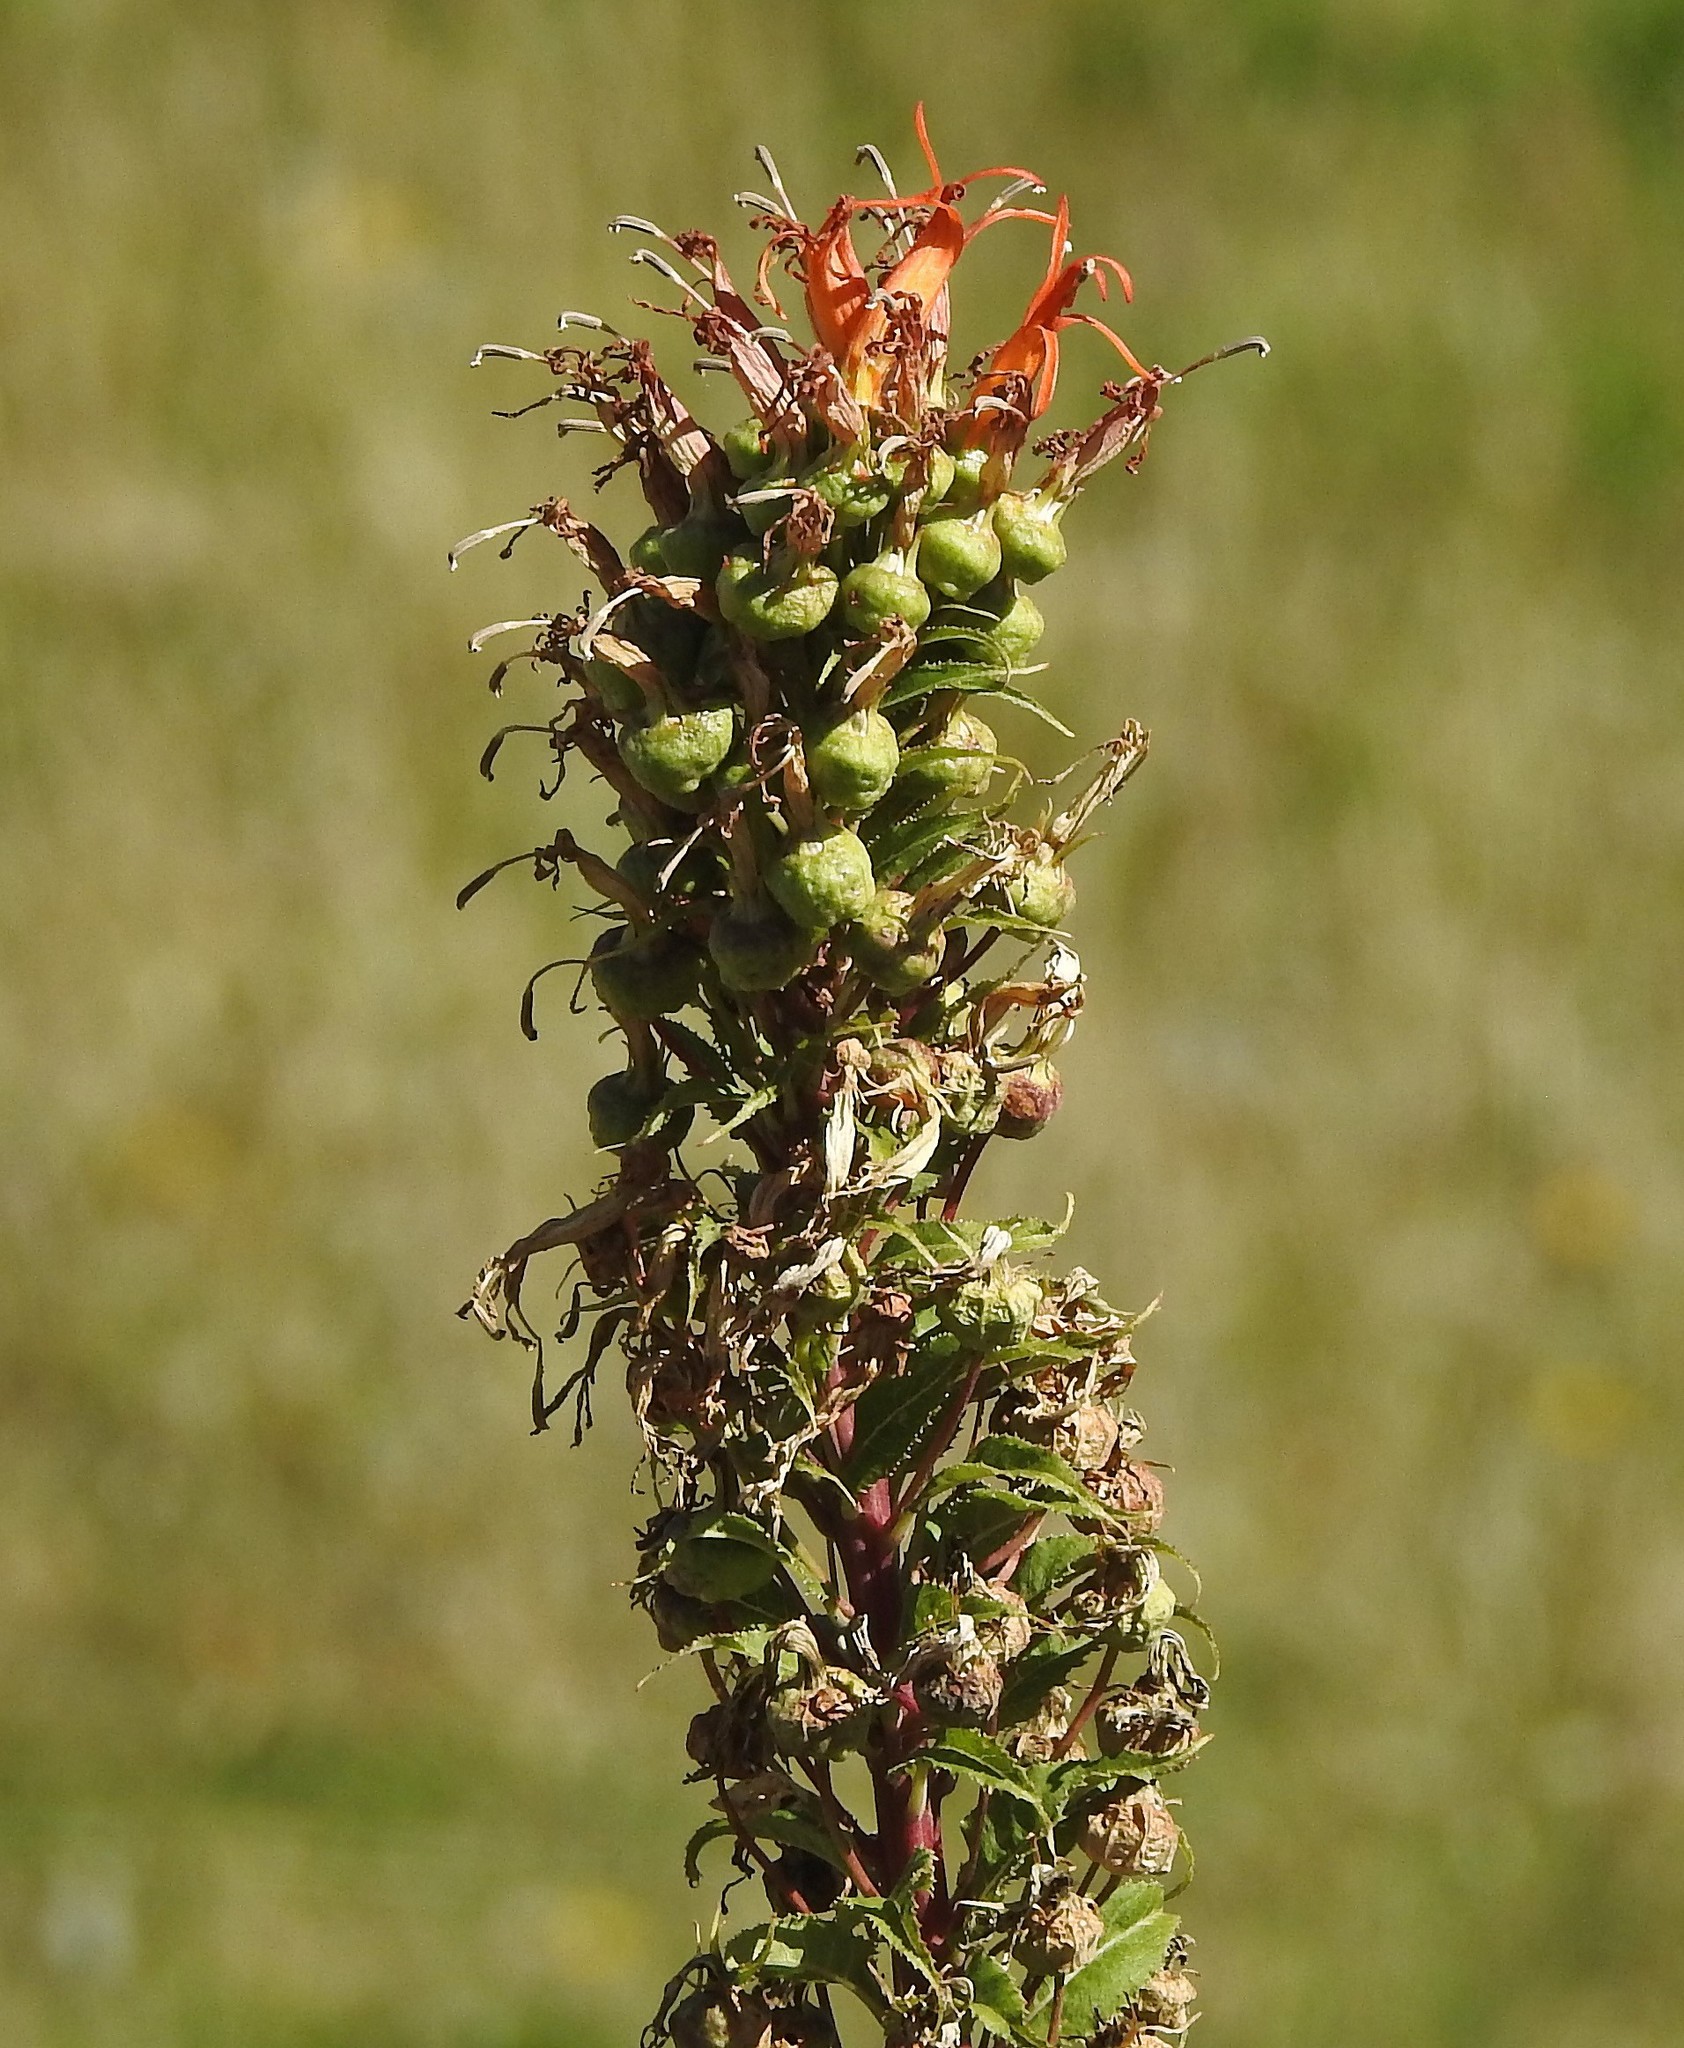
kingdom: Plantae
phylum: Tracheophyta
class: Magnoliopsida
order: Asterales
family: Campanulaceae
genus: Siphocampylus
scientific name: Siphocampylus nemoralis
